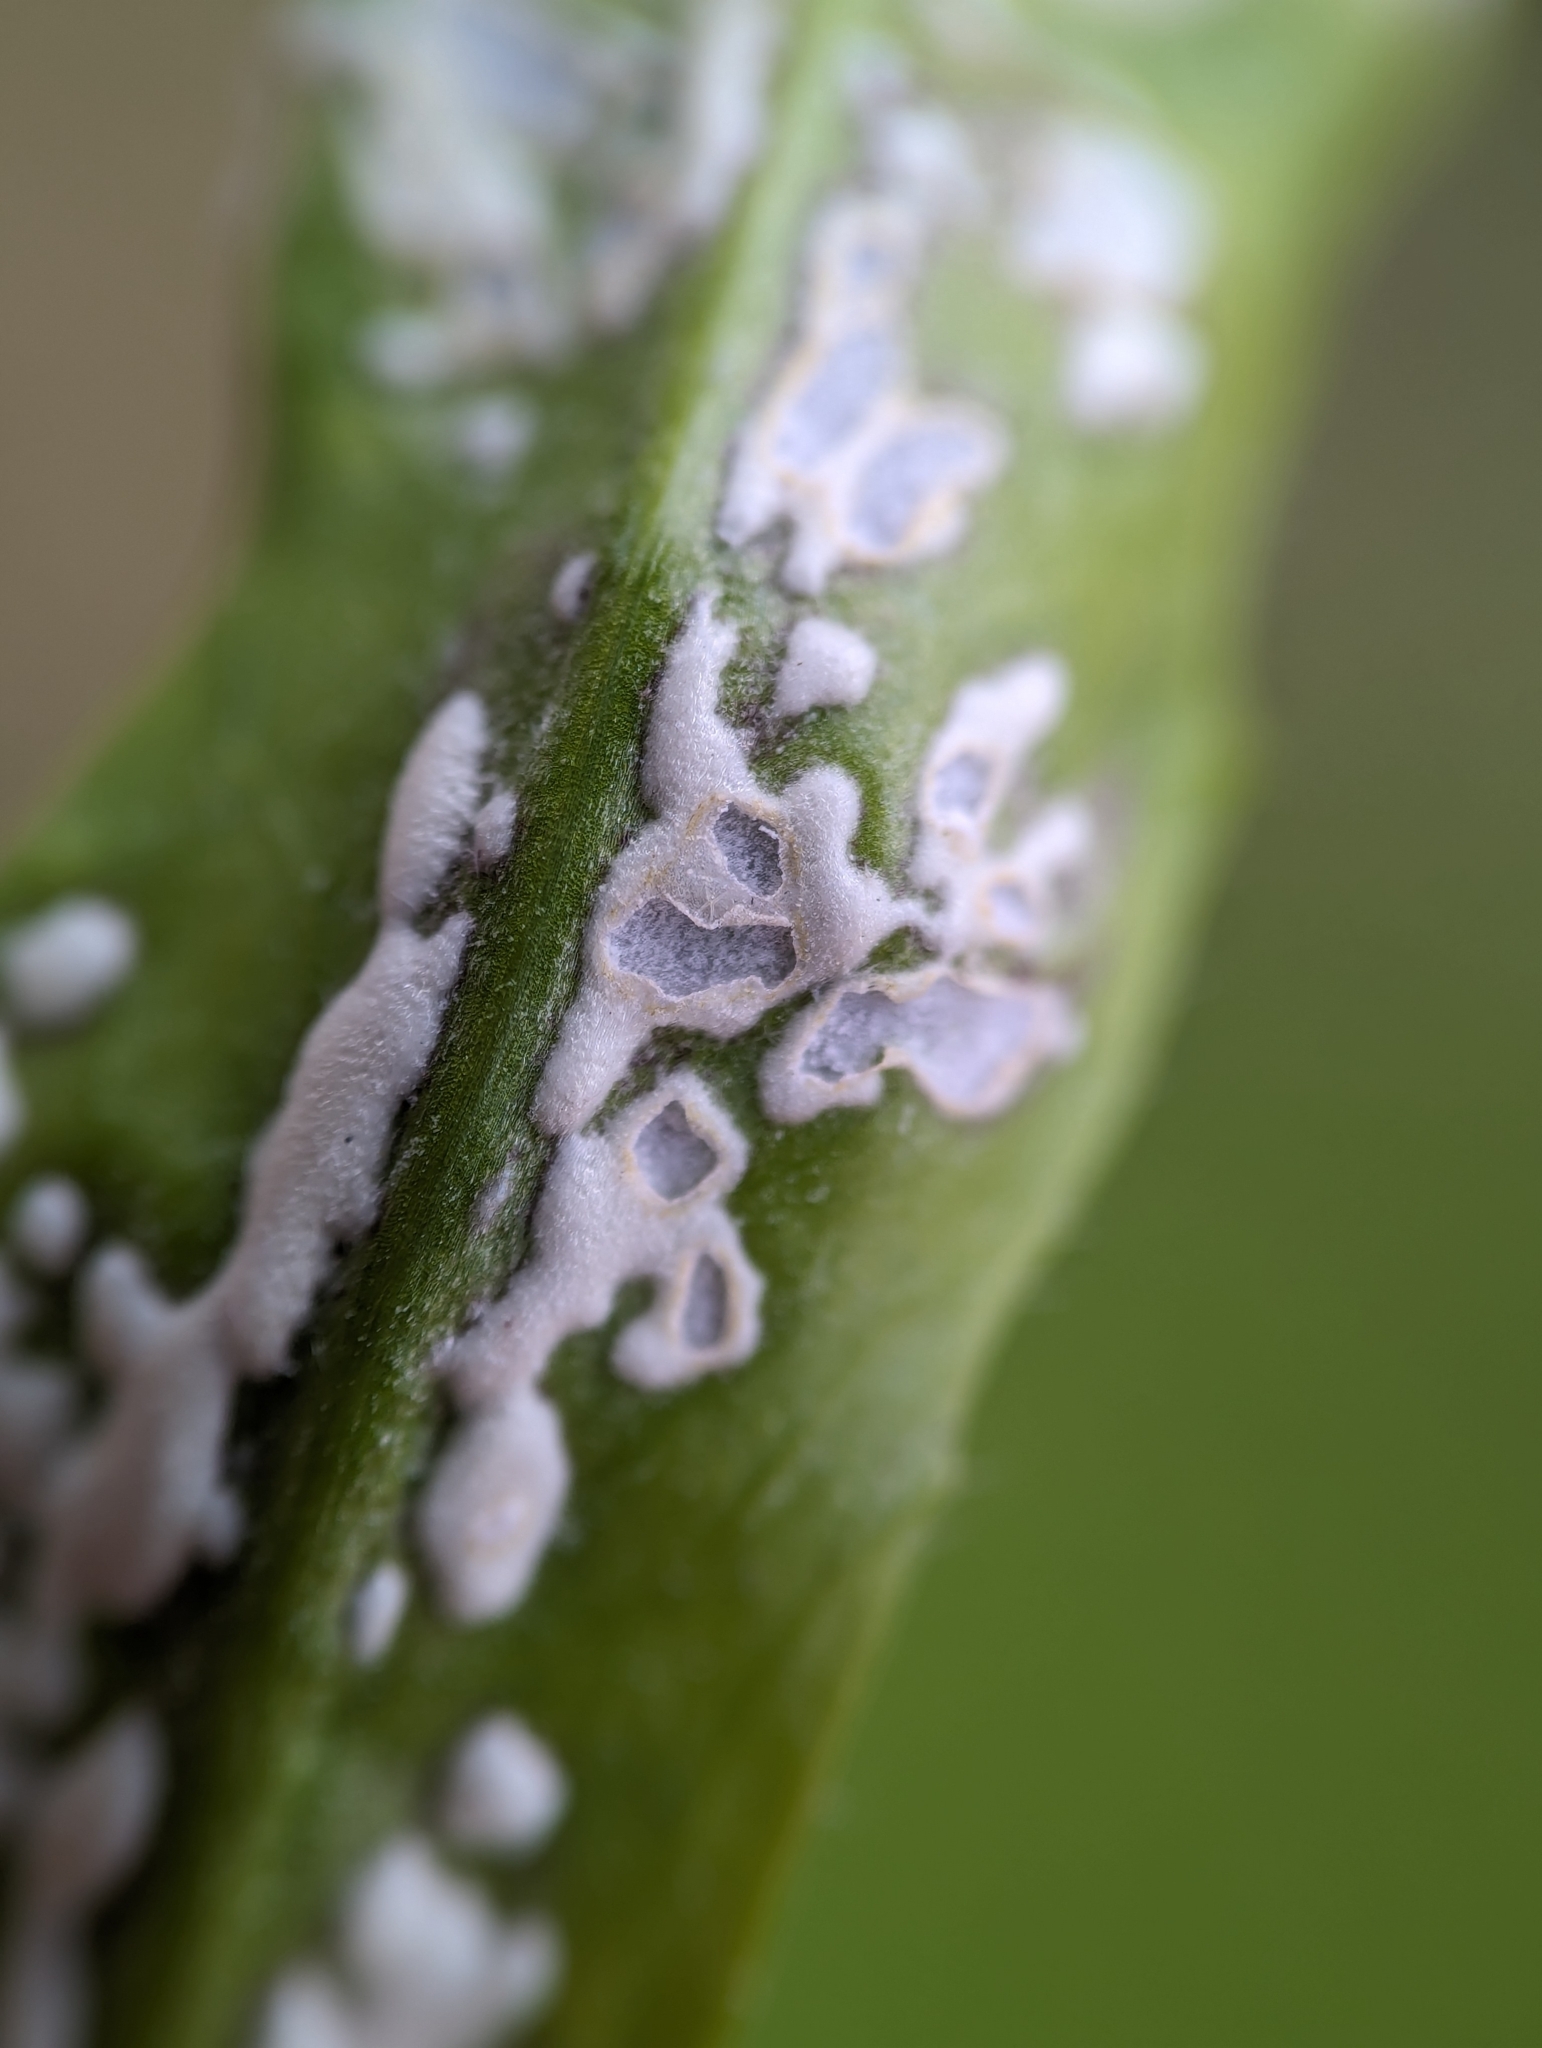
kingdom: Chromista
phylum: Oomycota
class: Peronosporea
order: Albuginales
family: Albuginaceae
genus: Albugo
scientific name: Albugo candida
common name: Crucifer white blister
